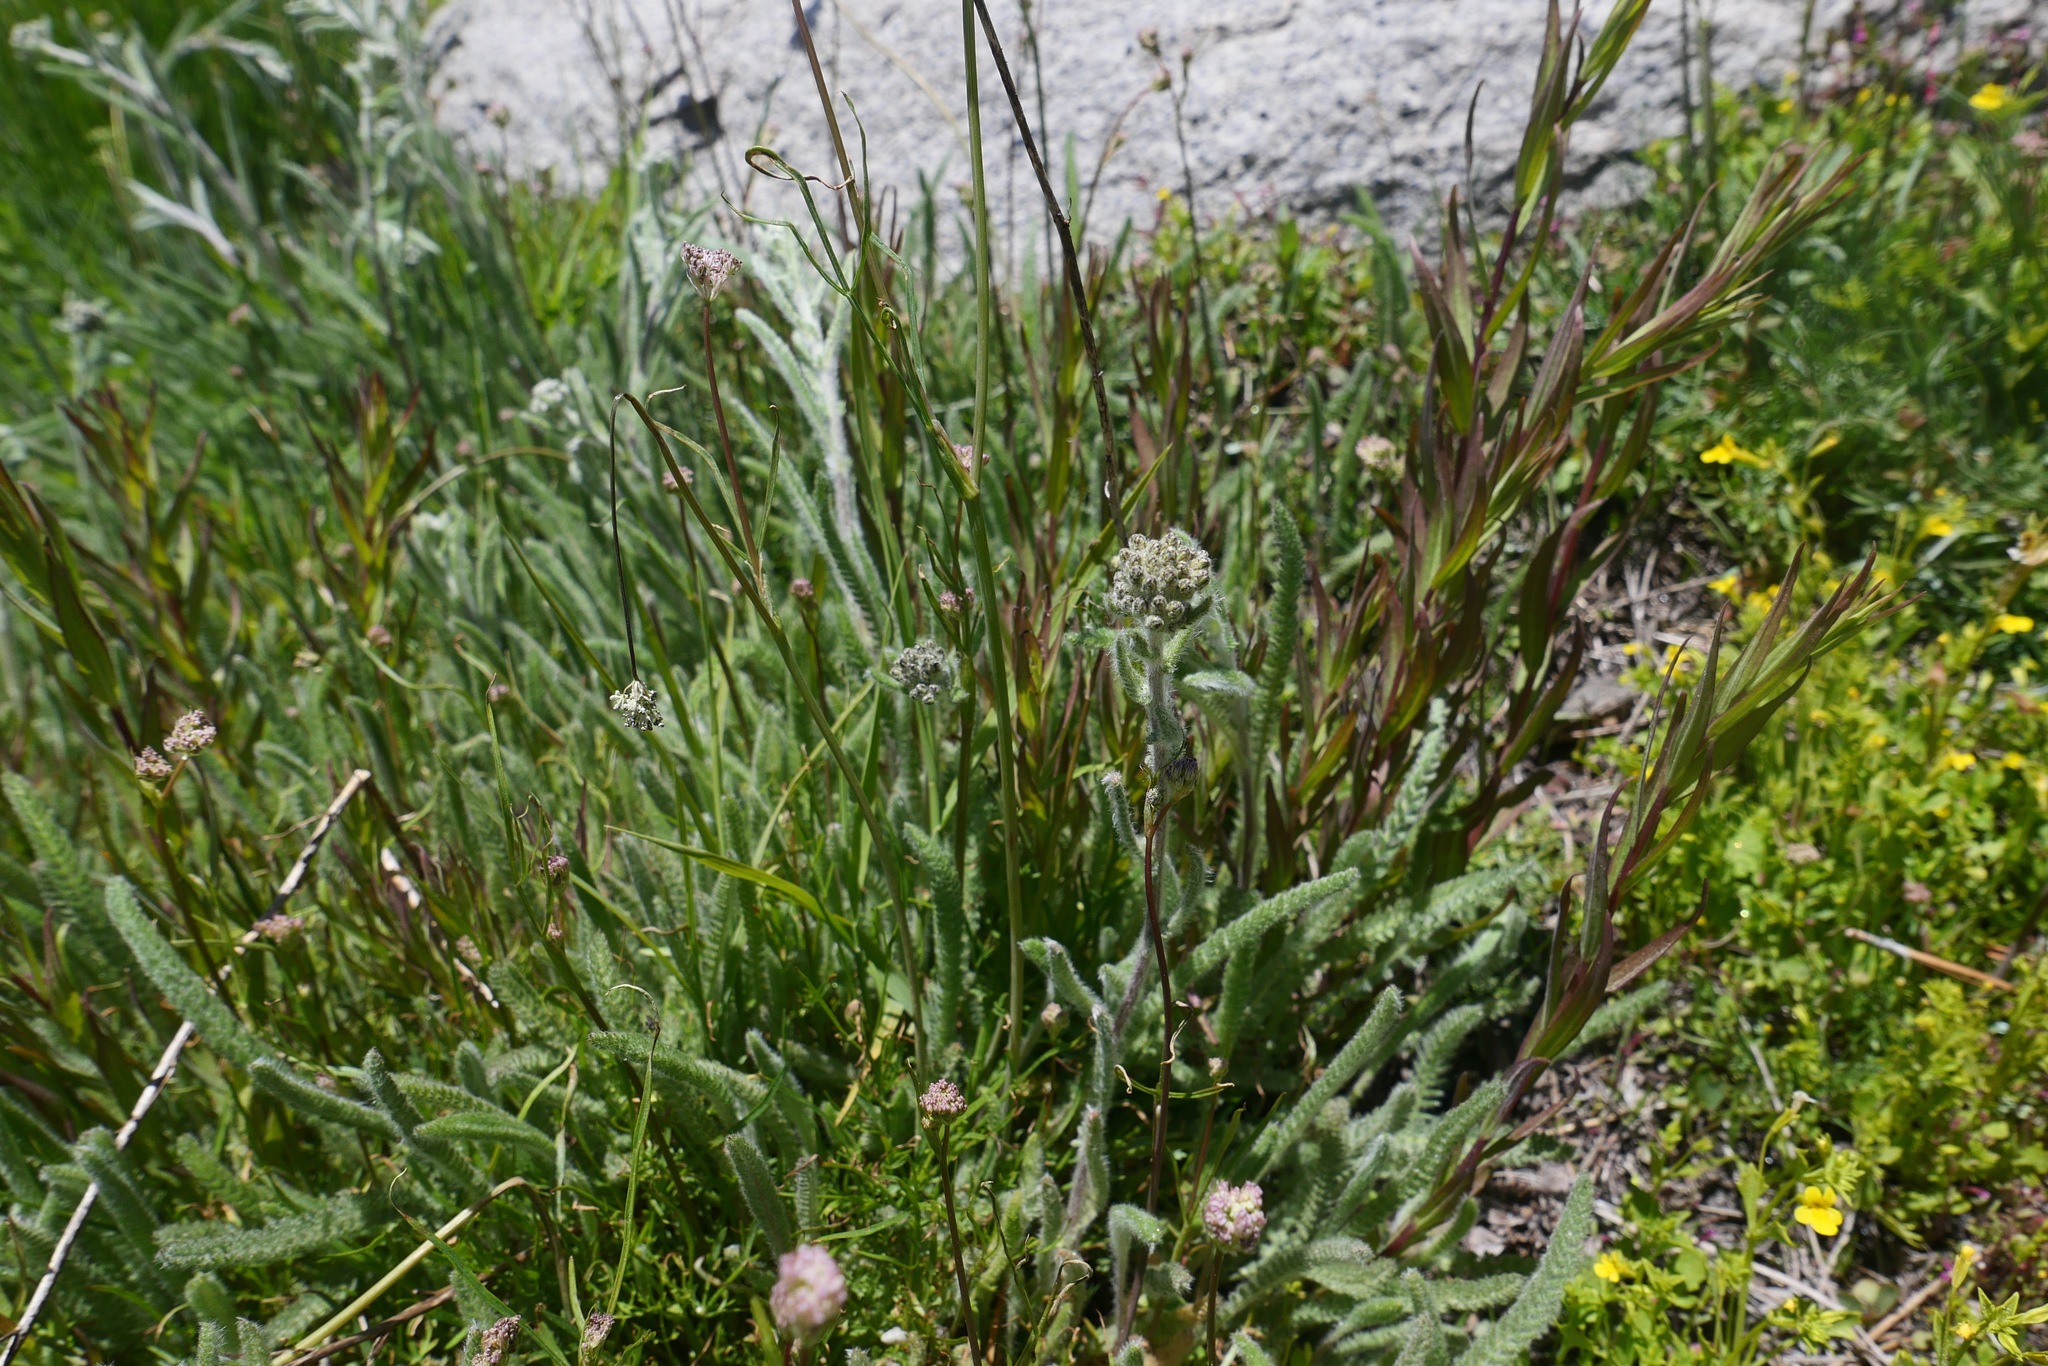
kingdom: Plantae
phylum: Tracheophyta
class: Magnoliopsida
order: Asterales
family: Asteraceae
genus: Achillea
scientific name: Achillea millefolium
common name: Yarrow
